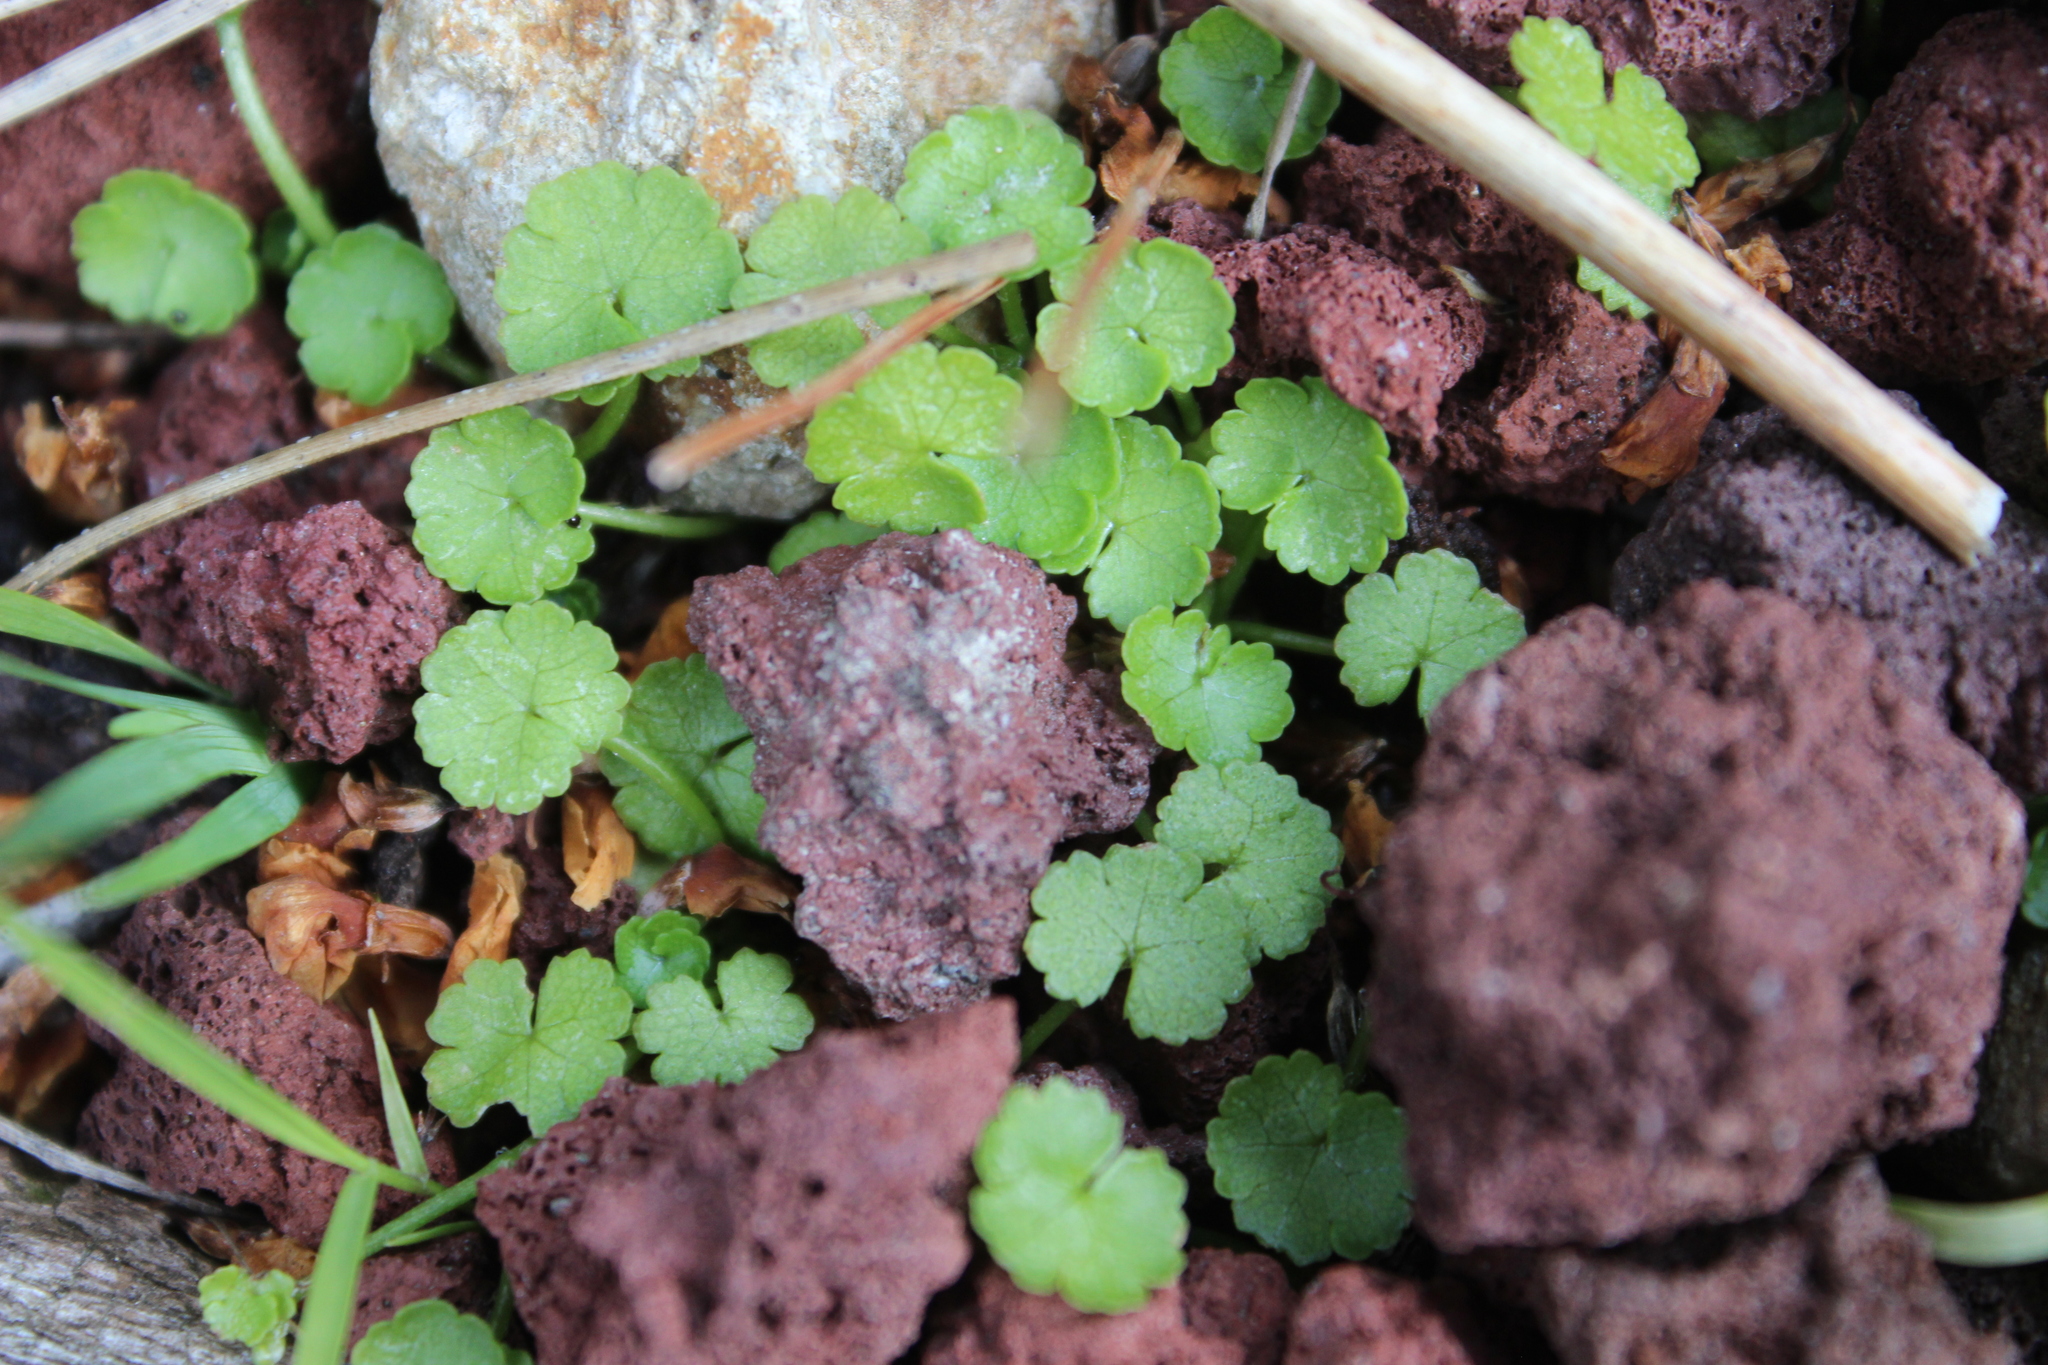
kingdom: Plantae
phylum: Tracheophyta
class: Magnoliopsida
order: Apiales
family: Araliaceae
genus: Hydrocotyle
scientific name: Hydrocotyle microphylla
